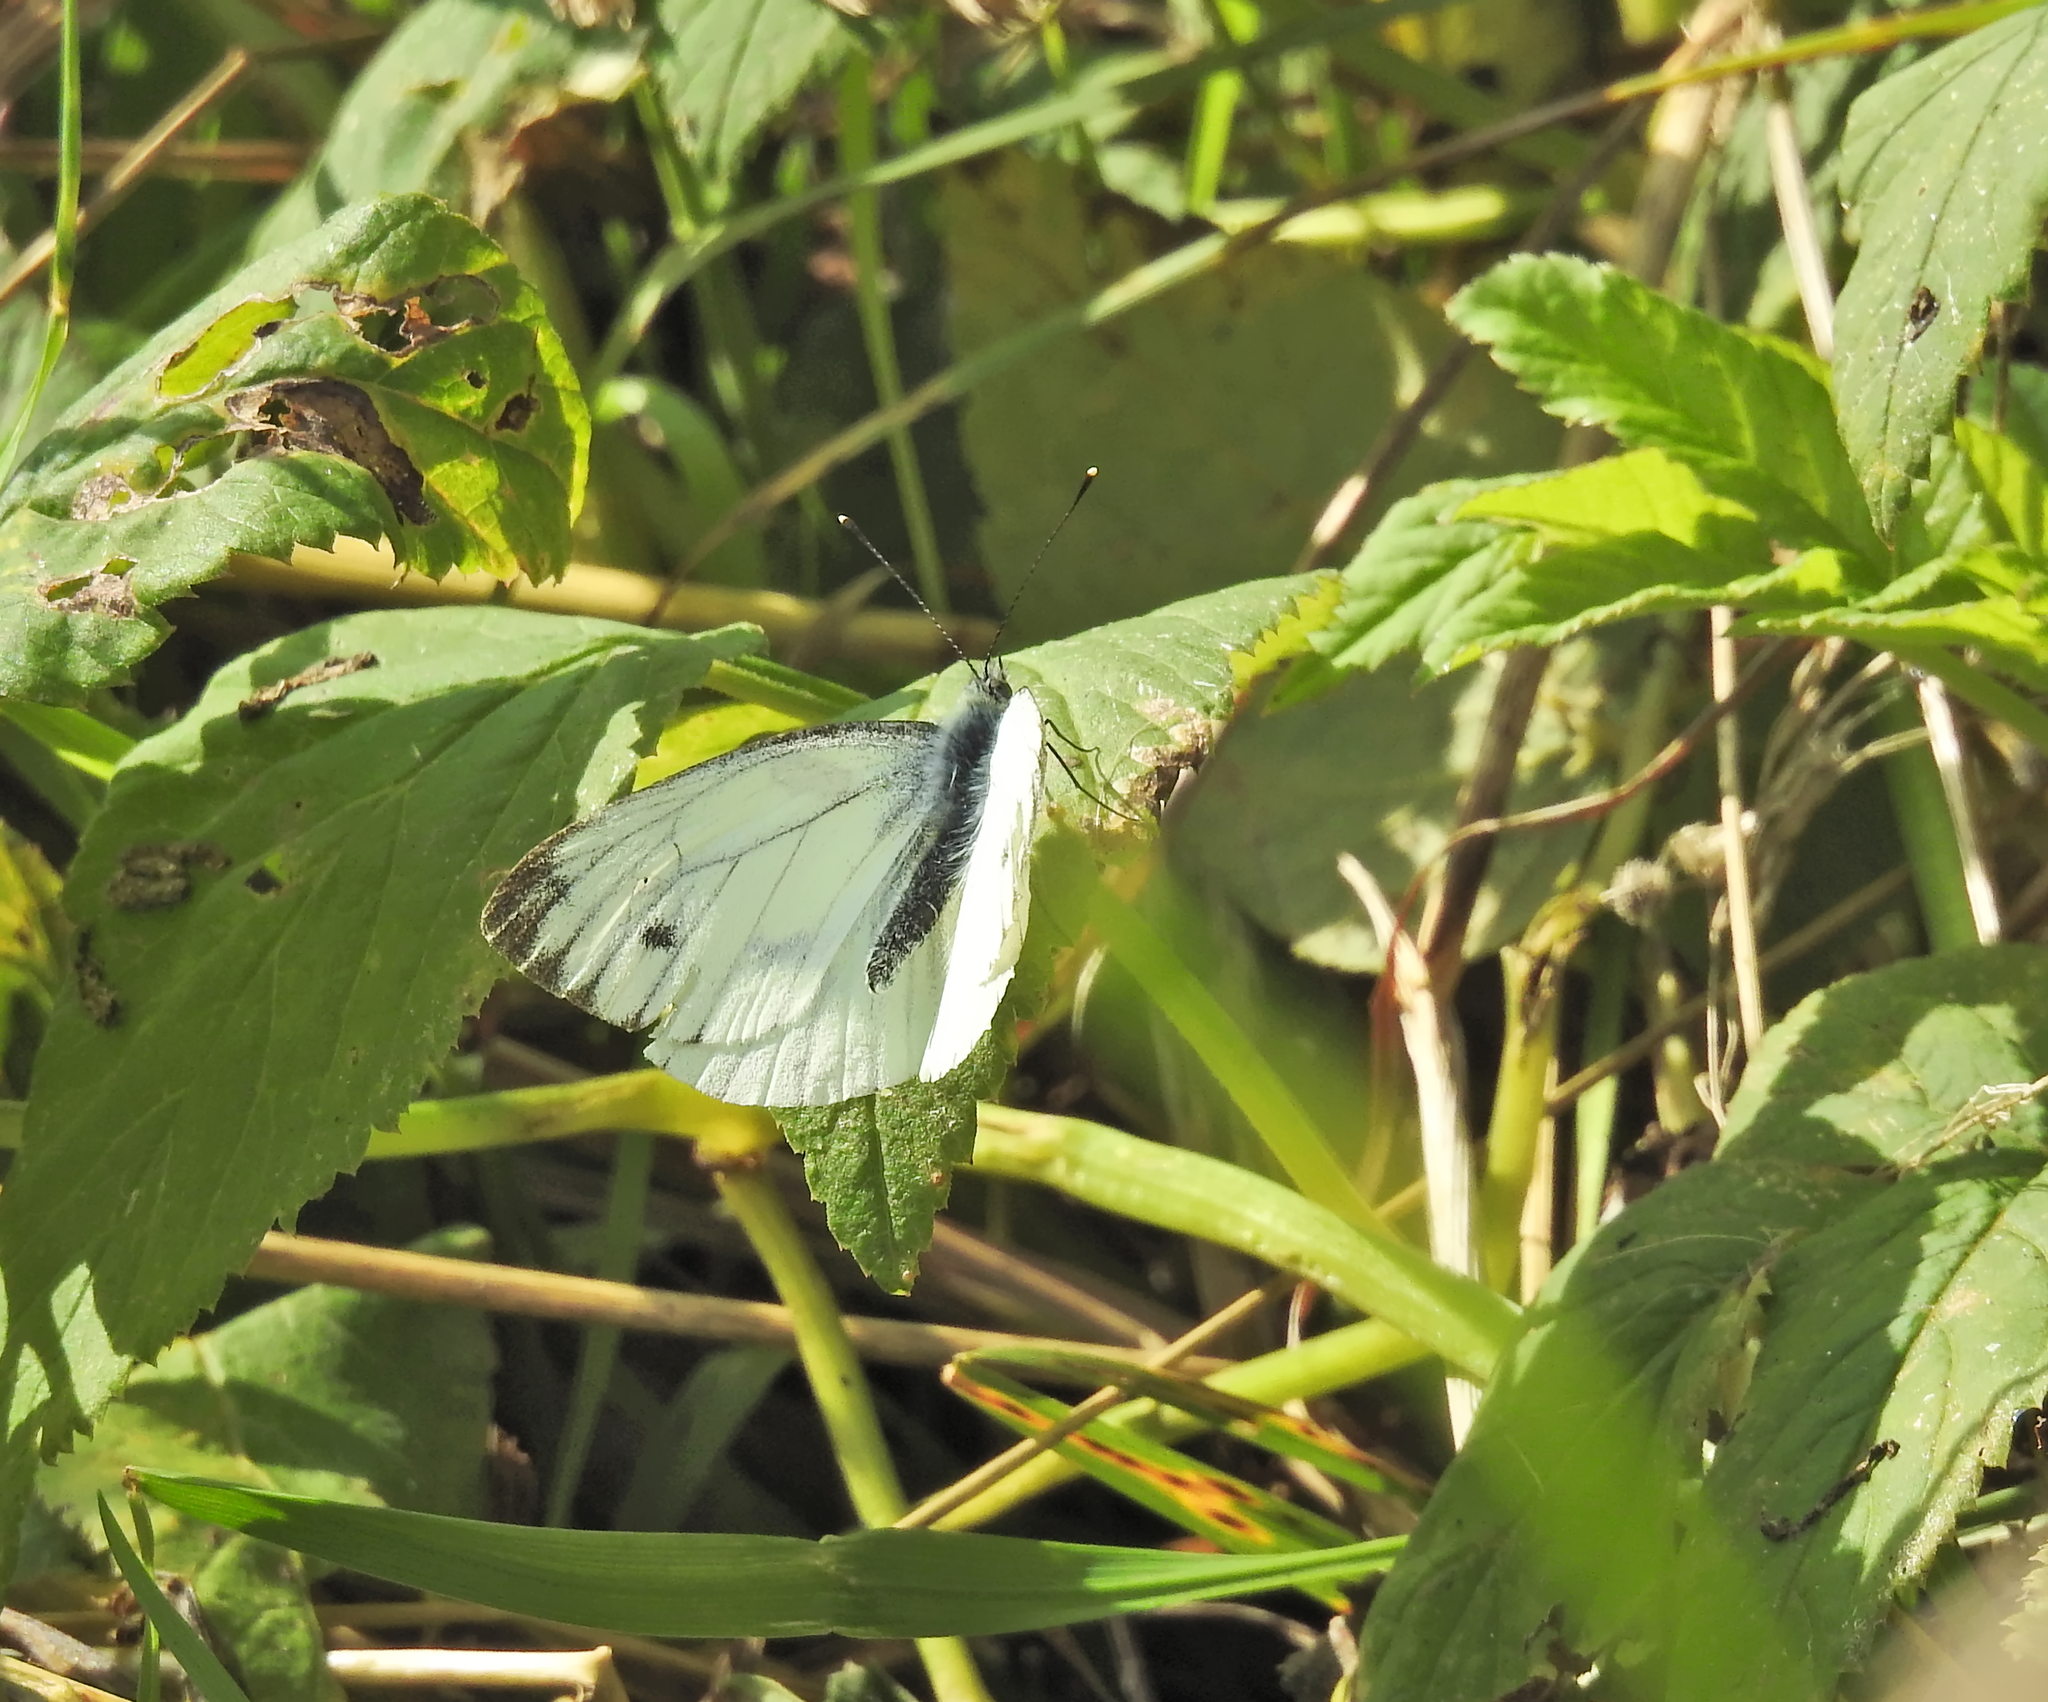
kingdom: Animalia
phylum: Arthropoda
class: Insecta
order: Lepidoptera
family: Pieridae
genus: Pieris
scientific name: Pieris napi
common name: Green-veined white
